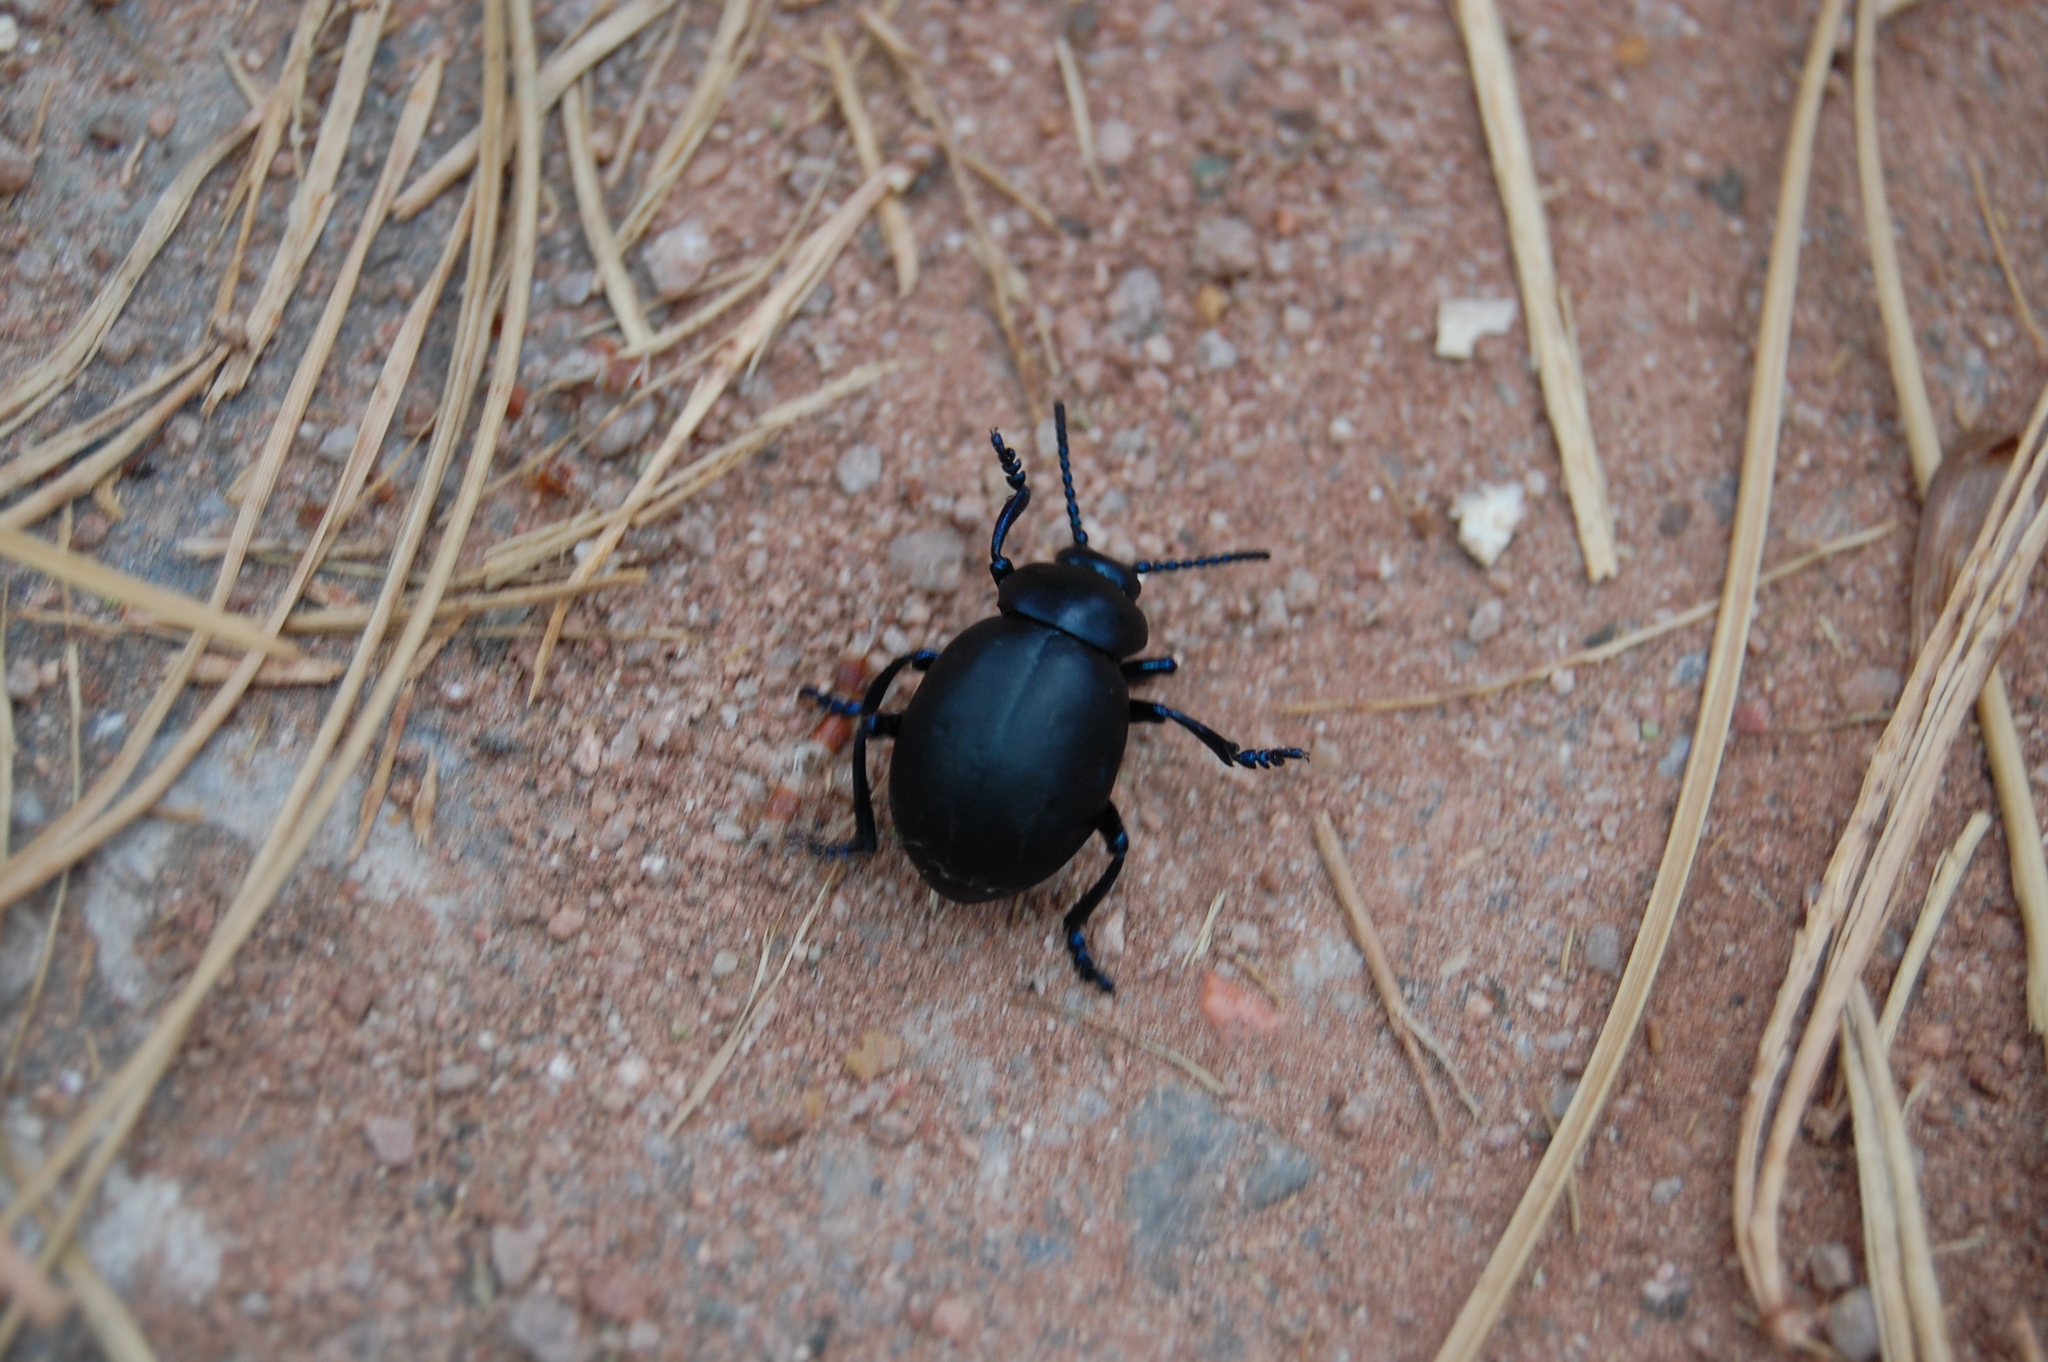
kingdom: Animalia
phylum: Arthropoda
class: Insecta
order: Coleoptera
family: Chrysomelidae
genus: Timarcha
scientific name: Timarcha tenebricosa
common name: Bloody-nosed beetle
